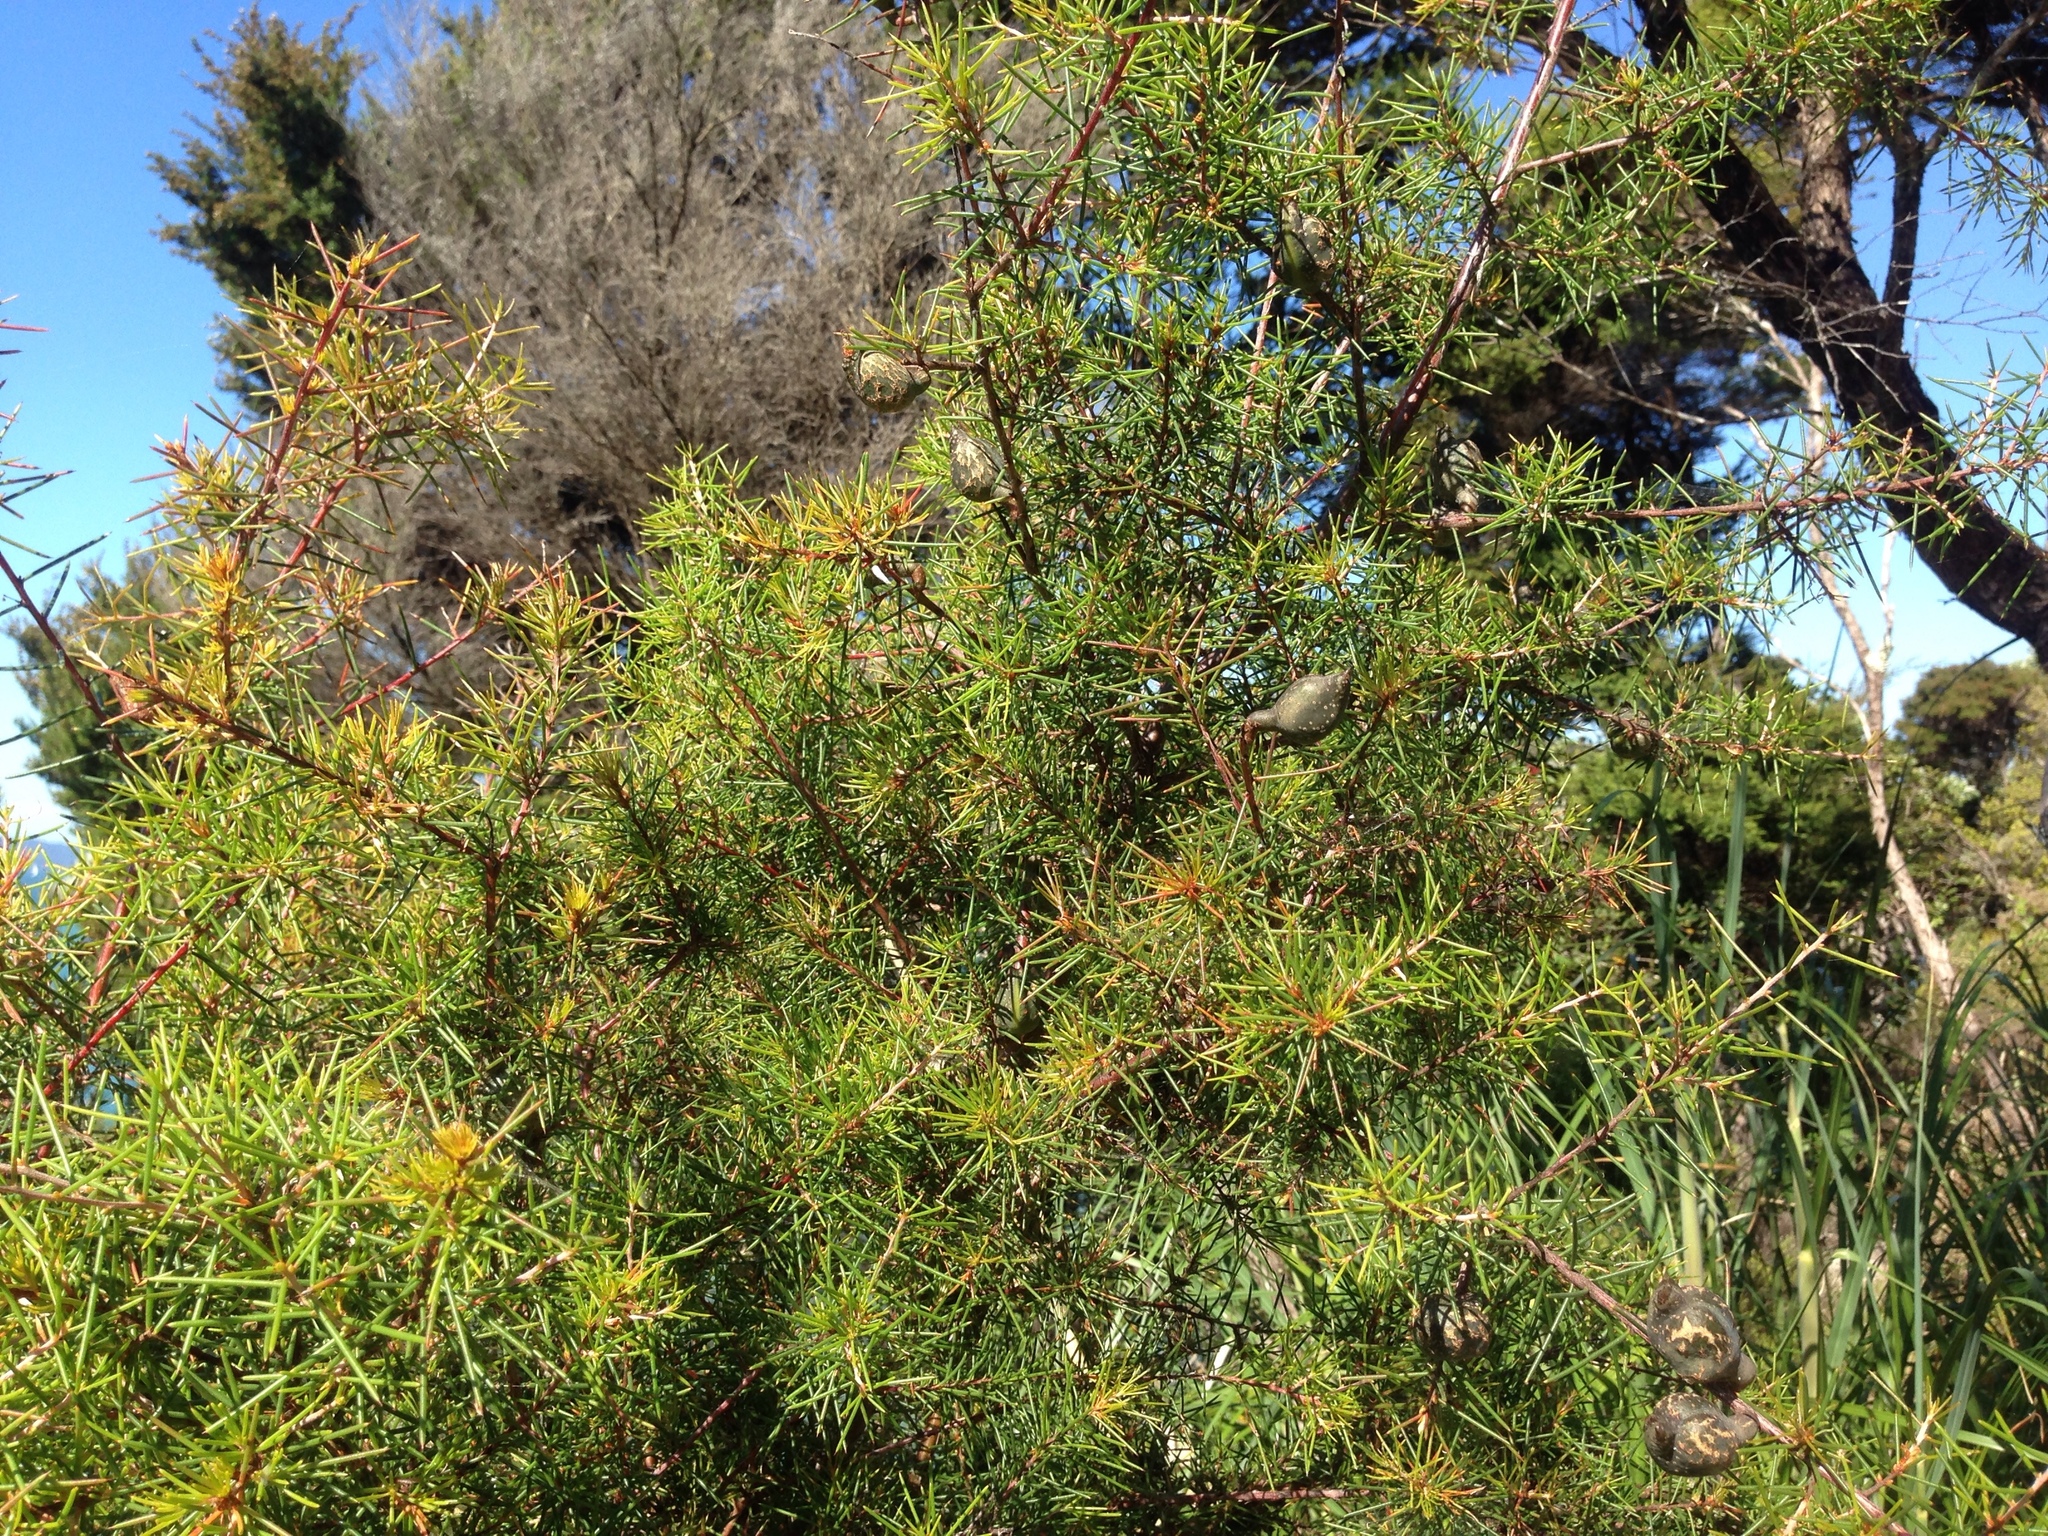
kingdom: Plantae
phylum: Tracheophyta
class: Magnoliopsida
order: Proteales
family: Proteaceae
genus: Hakea
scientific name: Hakea sericea
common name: Needle bush
